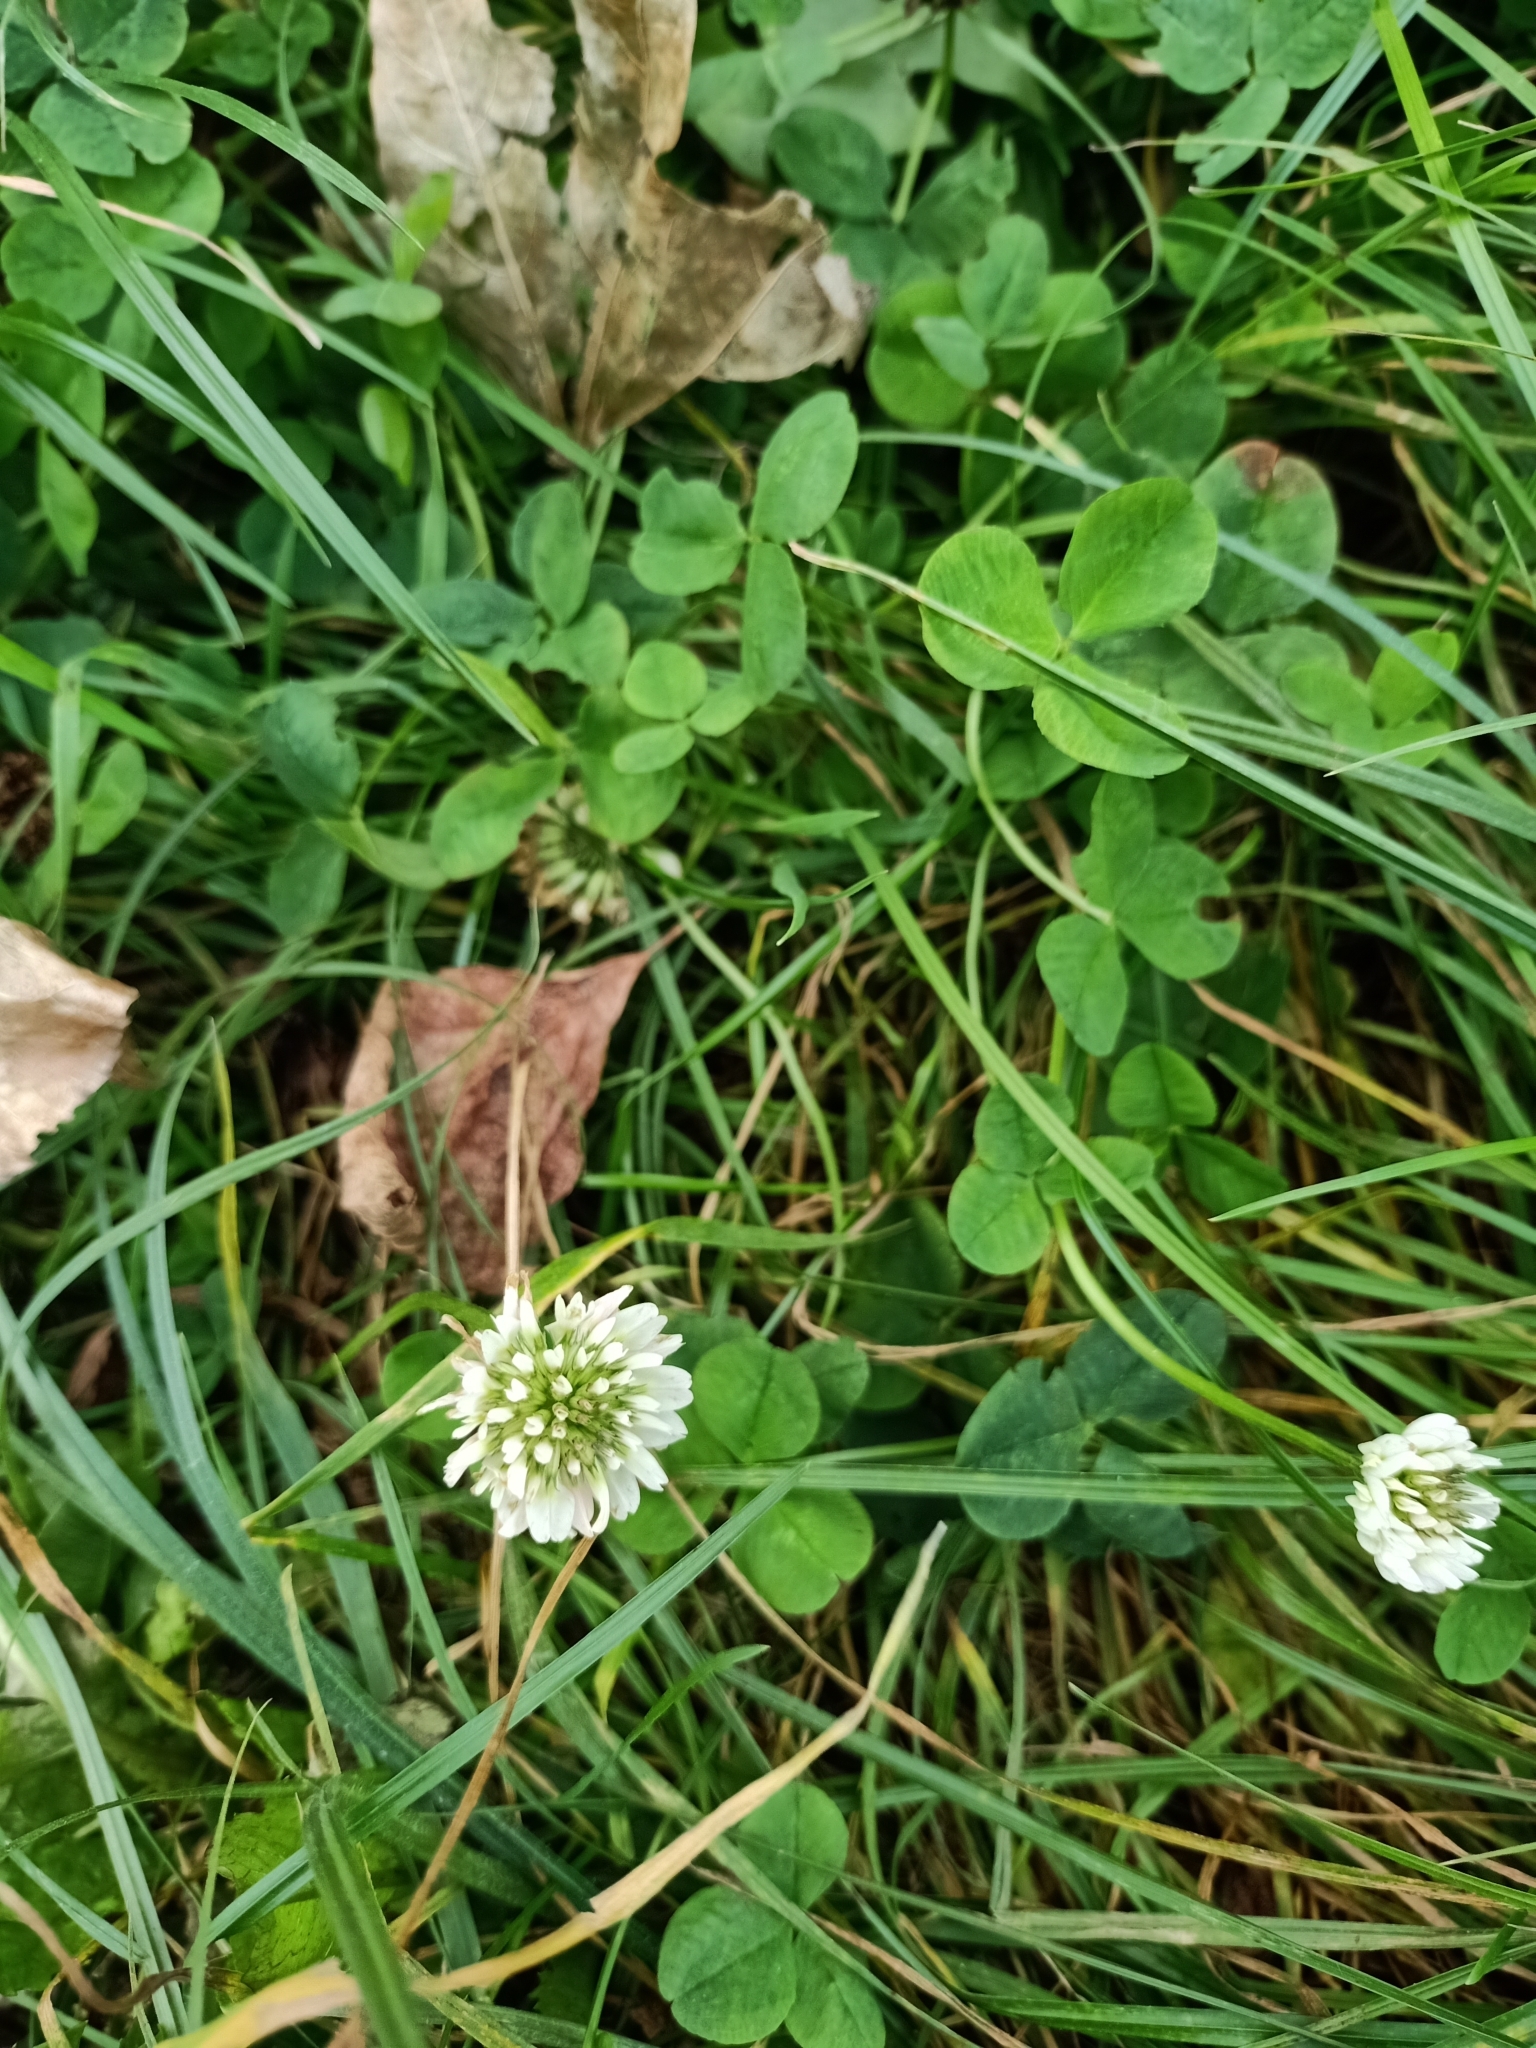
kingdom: Plantae
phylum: Tracheophyta
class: Magnoliopsida
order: Fabales
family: Fabaceae
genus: Trifolium
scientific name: Trifolium repens
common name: White clover
